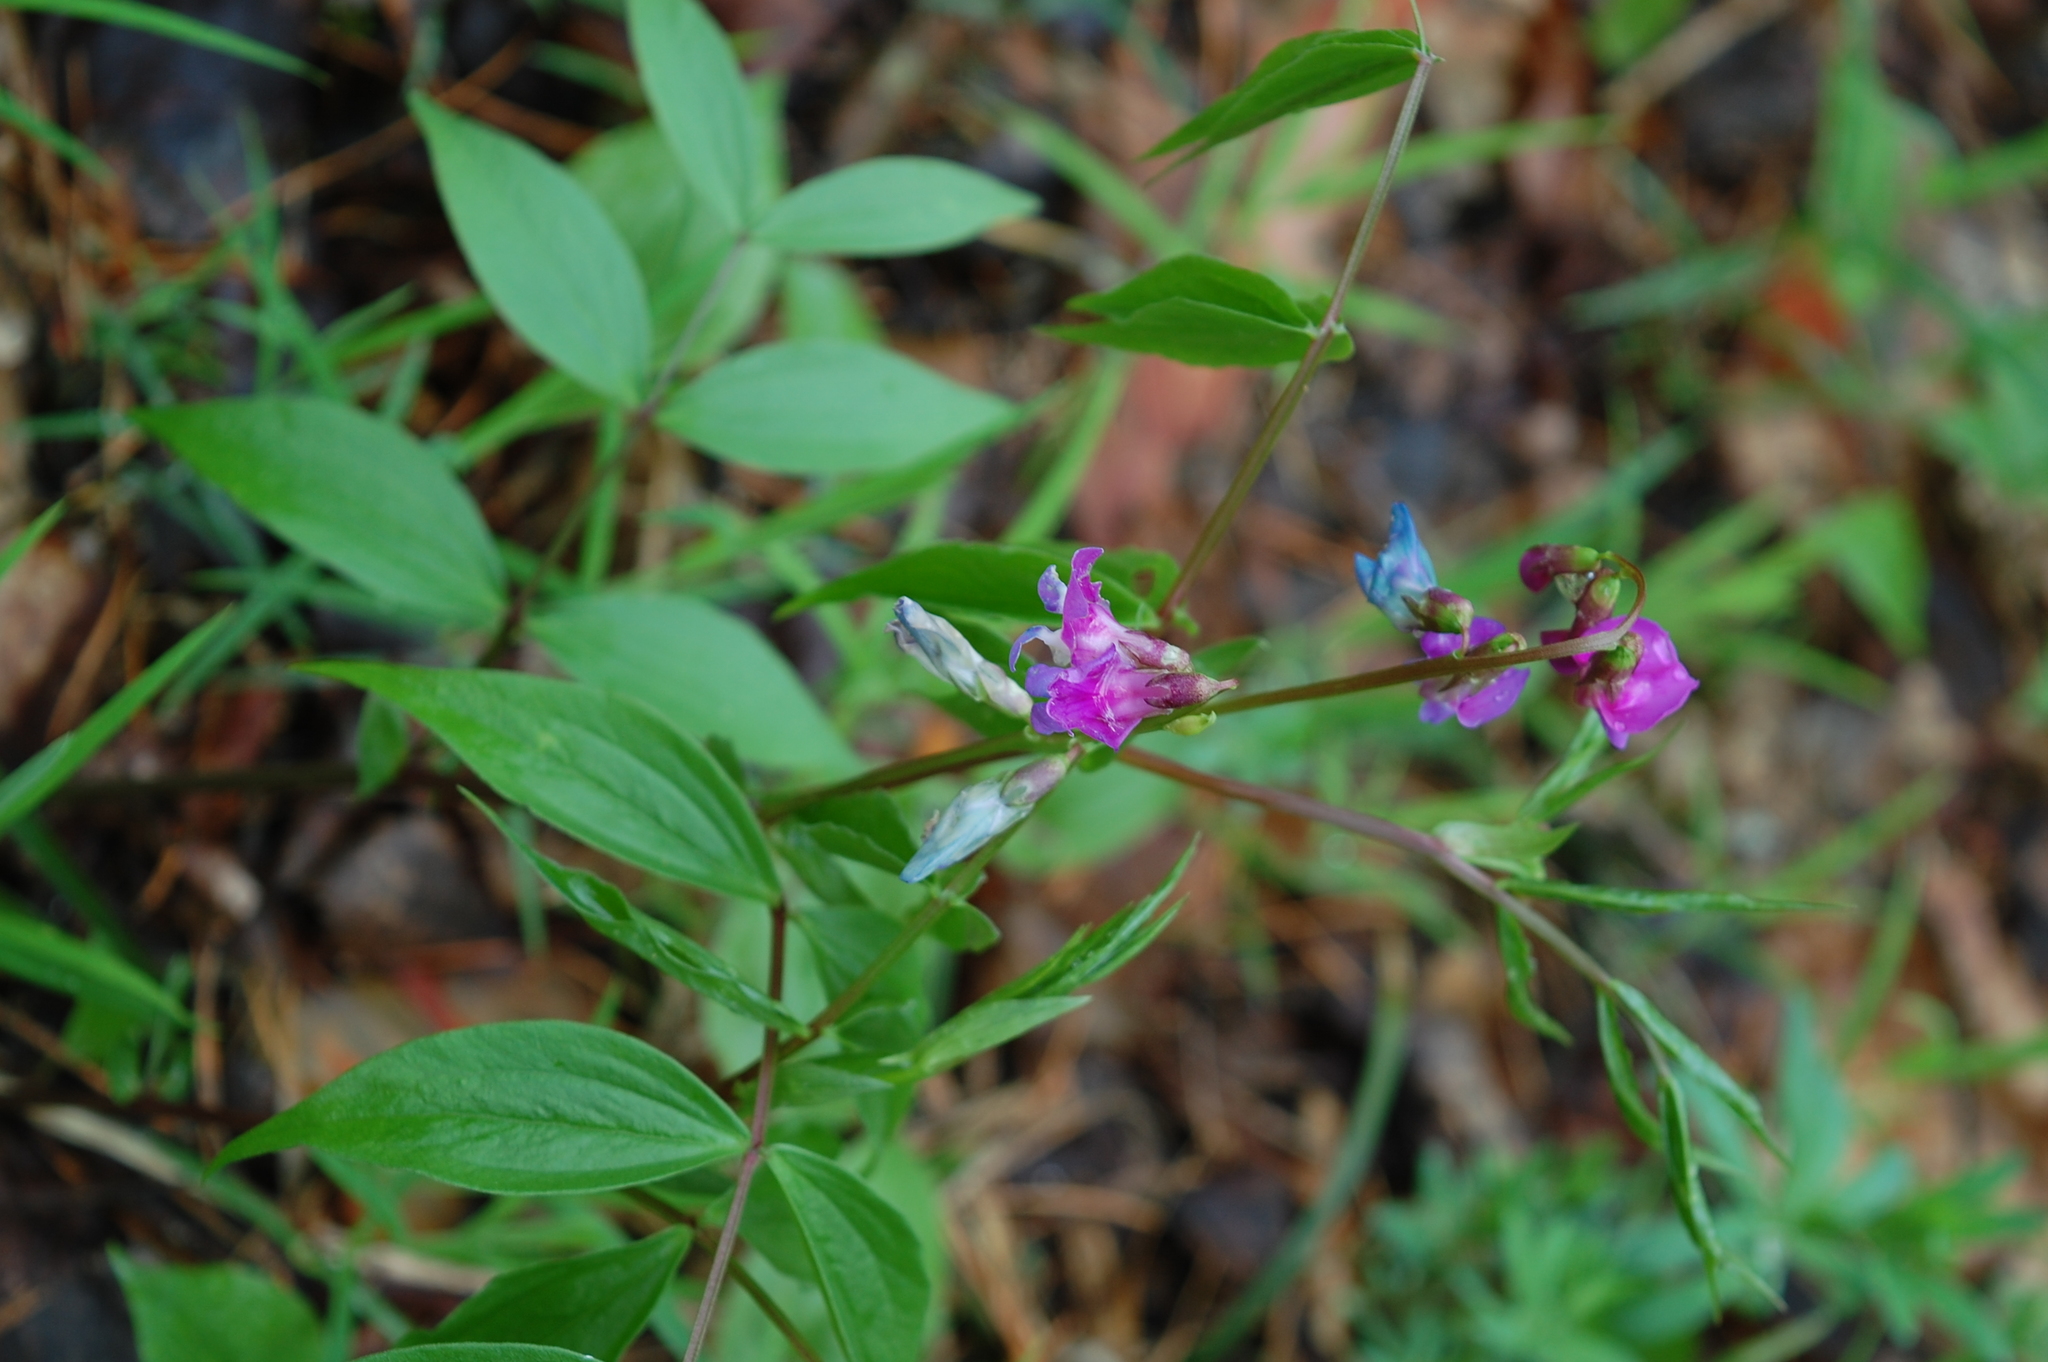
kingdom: Plantae
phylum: Tracheophyta
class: Magnoliopsida
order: Fabales
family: Fabaceae
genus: Lathyrus
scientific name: Lathyrus vernus
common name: Spring pea
